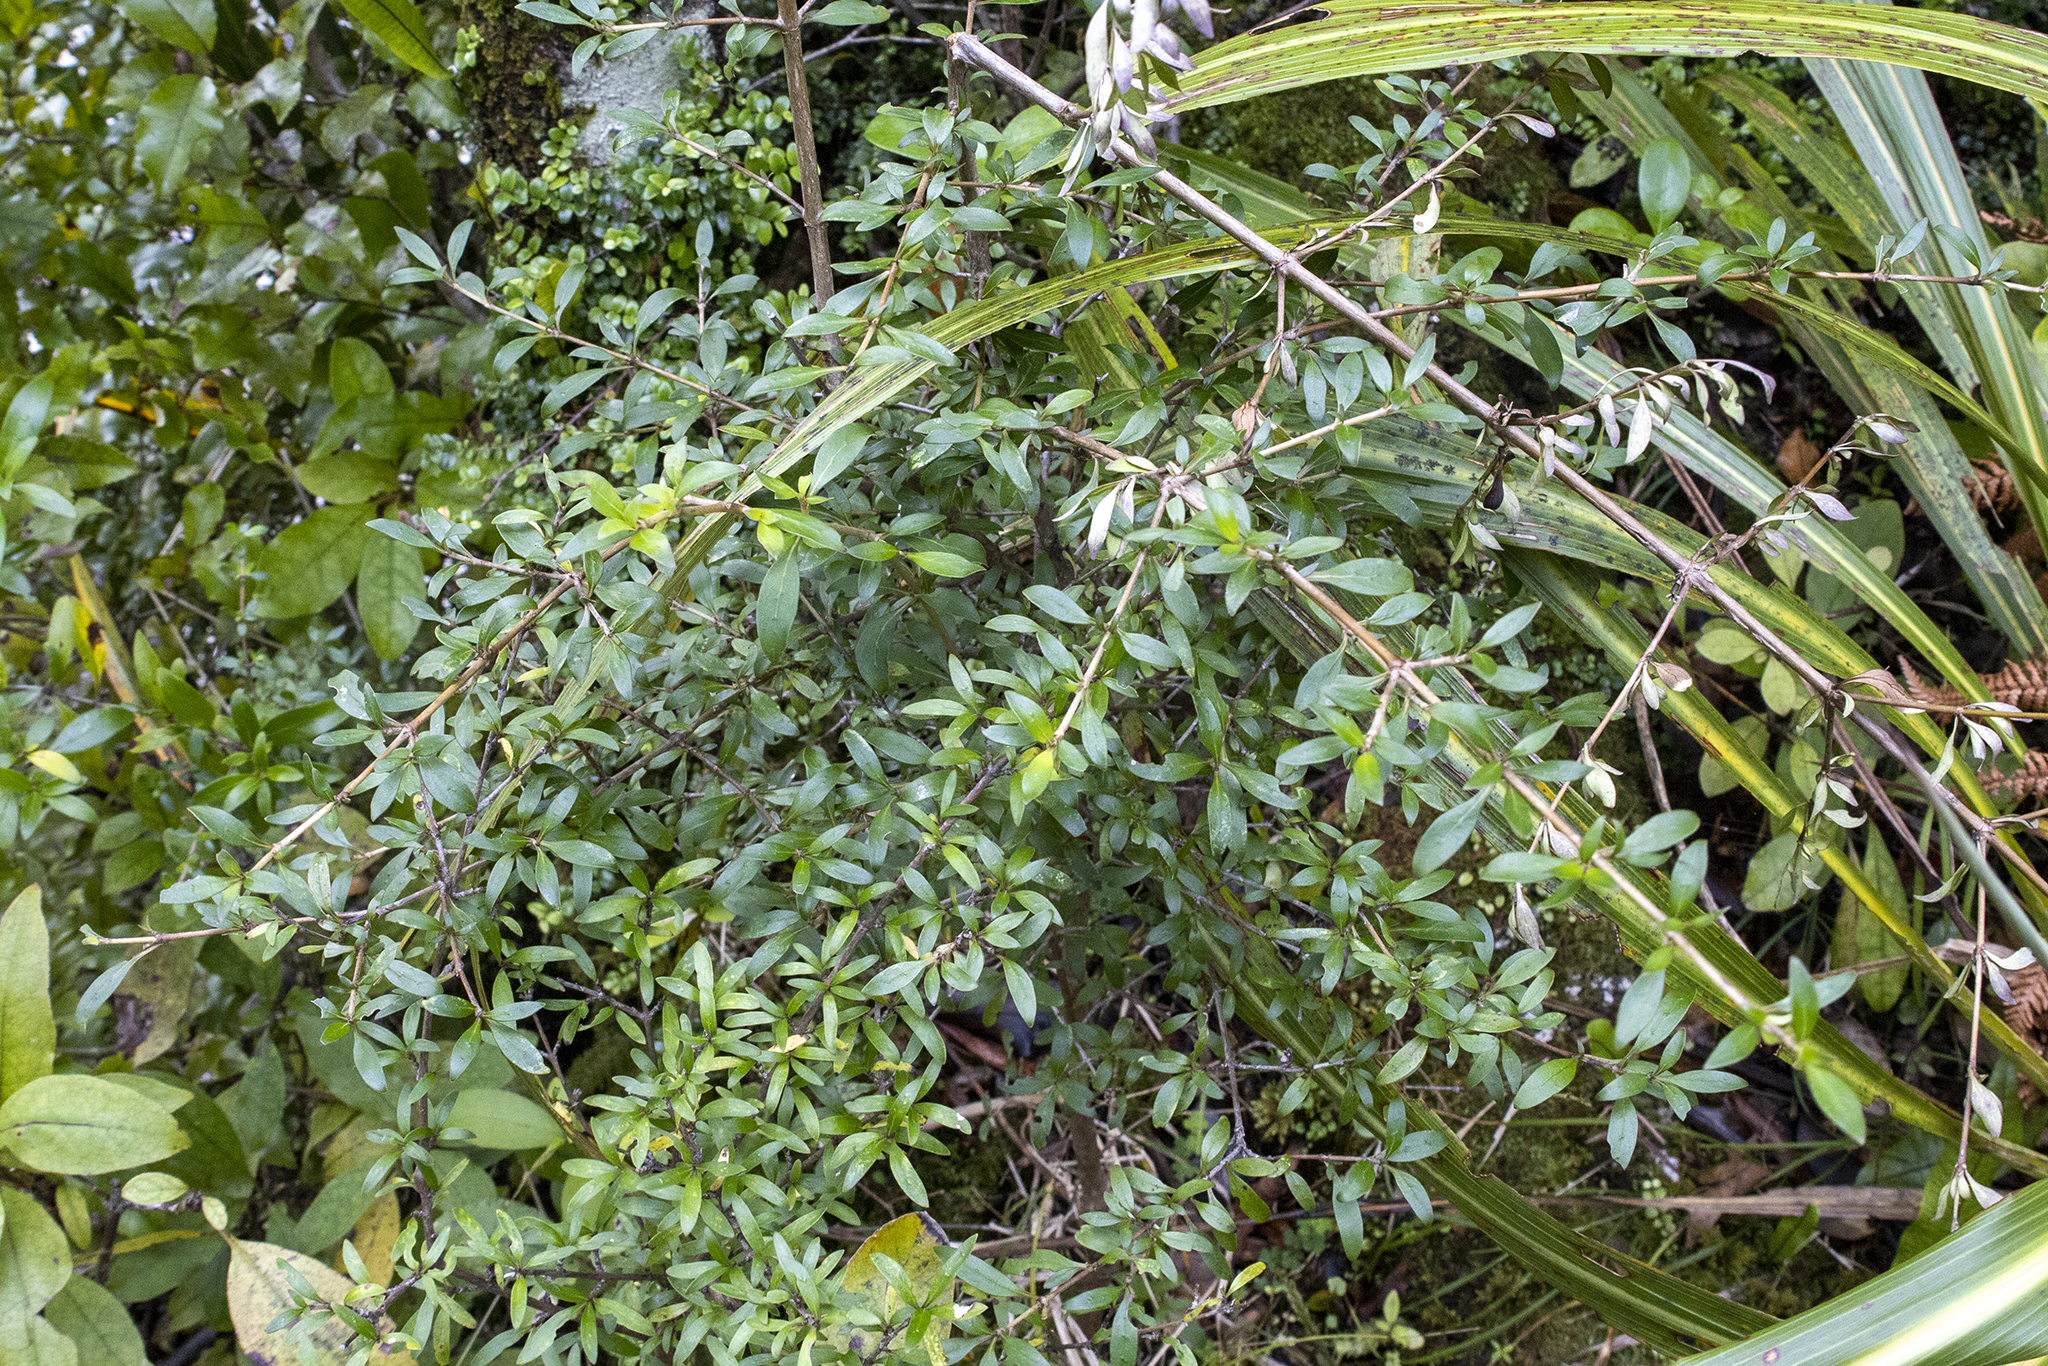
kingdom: Plantae
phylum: Tracheophyta
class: Magnoliopsida
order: Gentianales
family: Rubiaceae
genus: Coprosma
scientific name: Coprosma cunninghamii
